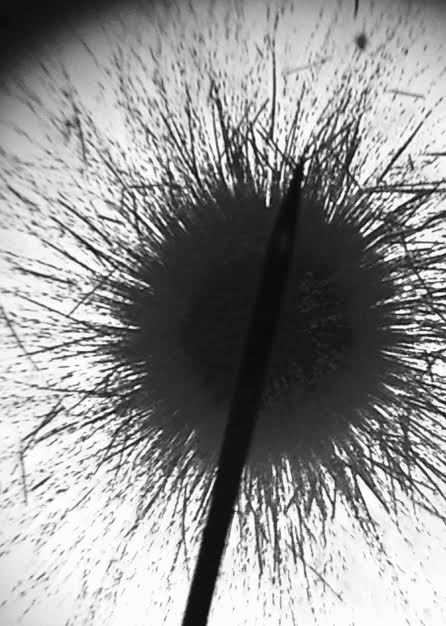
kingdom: Bacteria
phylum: Cyanobacteria
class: Cyanobacteriia
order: Cyanobacteriales
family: Aphanizomenonaceae
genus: Gloeotrichia
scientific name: Gloeotrichia
